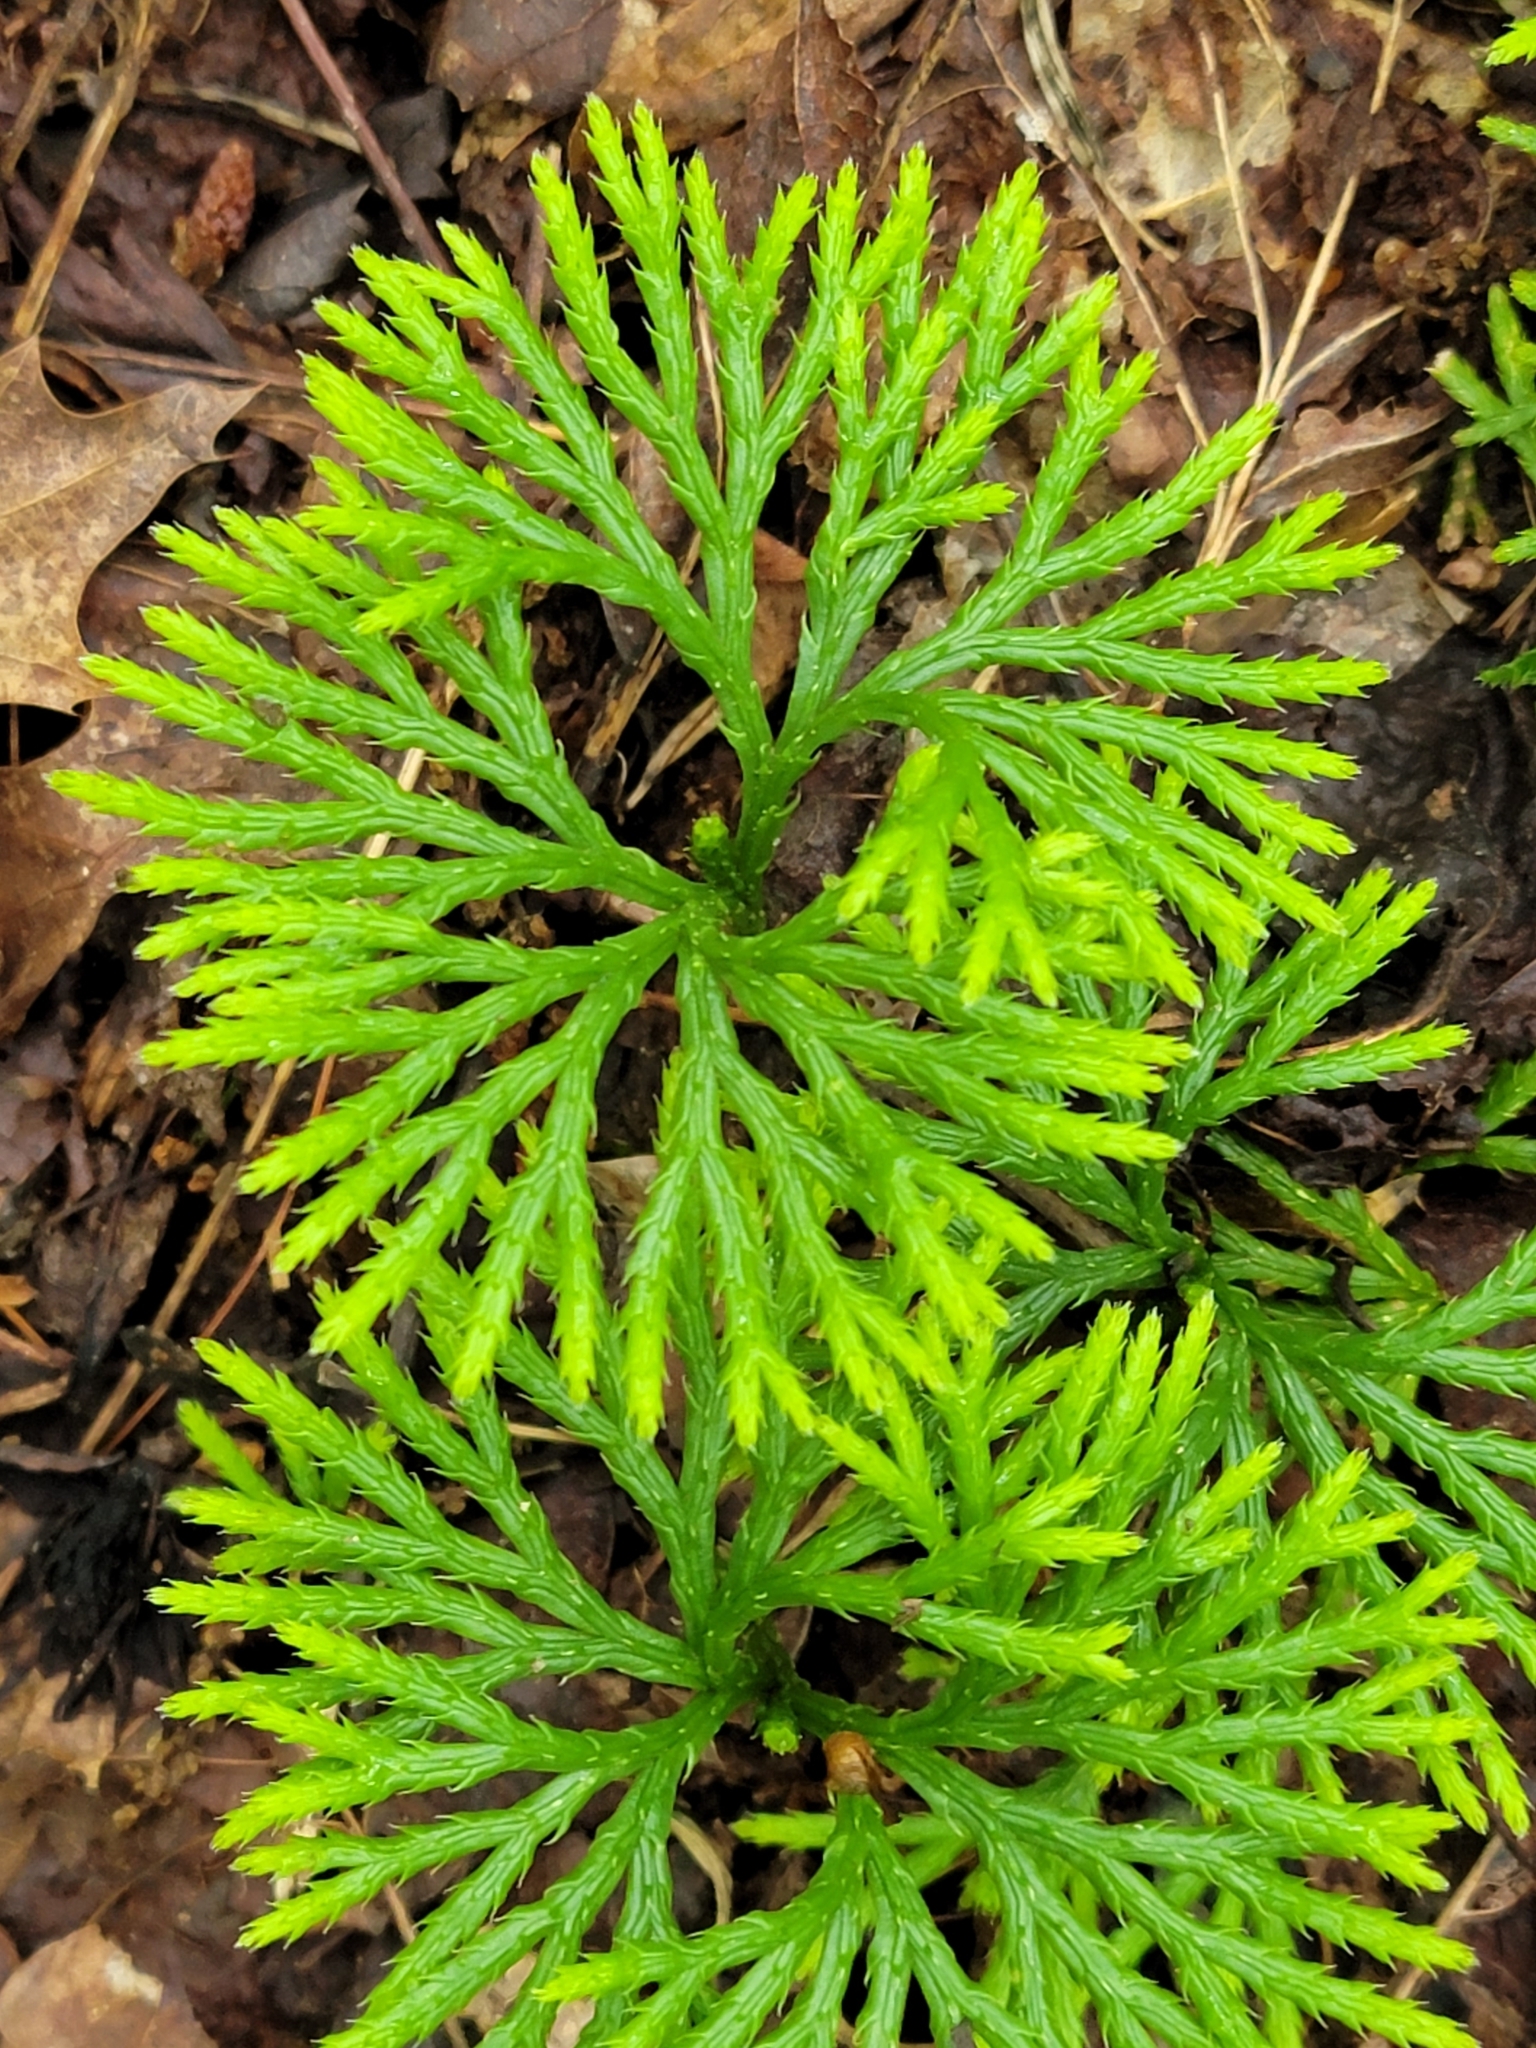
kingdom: Plantae
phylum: Tracheophyta
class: Lycopodiopsida
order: Lycopodiales
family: Lycopodiaceae
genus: Diphasiastrum
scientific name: Diphasiastrum digitatum
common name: Southern running-pine
